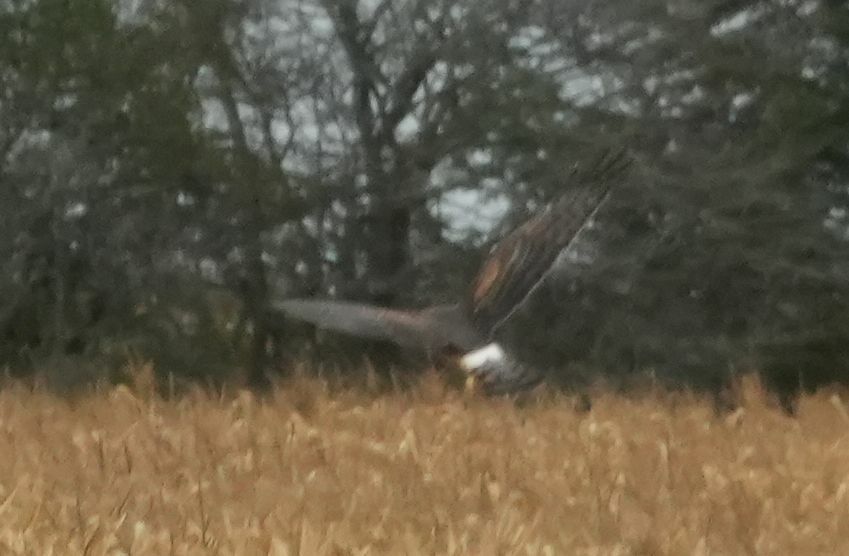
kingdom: Animalia
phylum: Chordata
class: Aves
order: Accipitriformes
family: Accipitridae
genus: Circus
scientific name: Circus cyaneus
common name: Hen harrier
